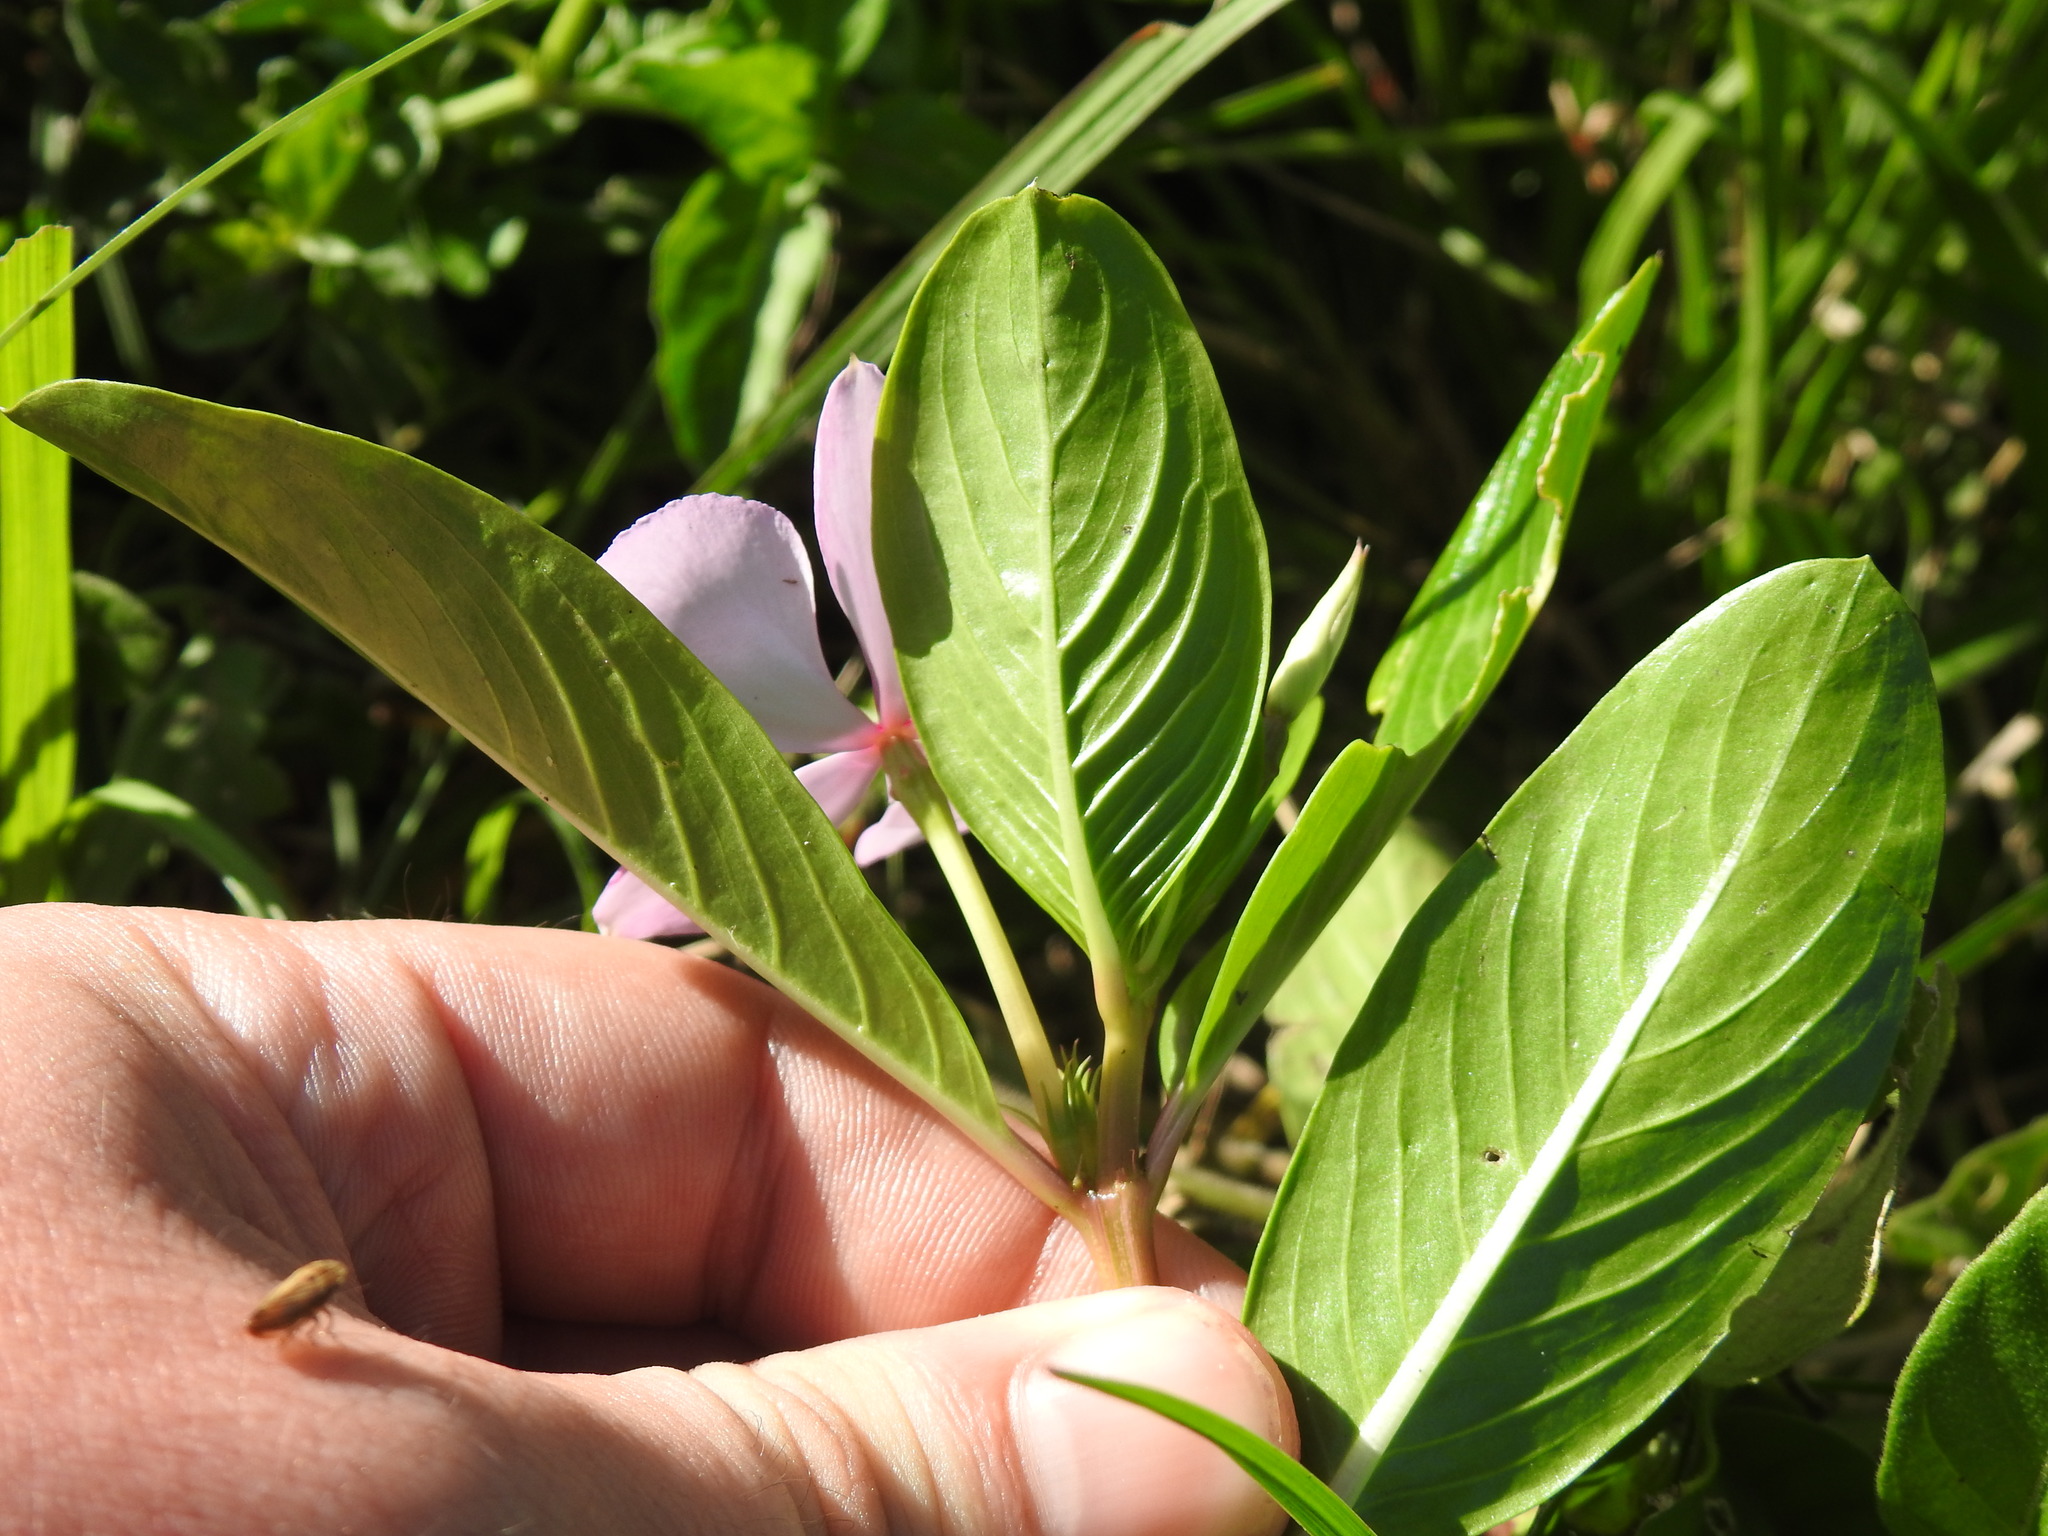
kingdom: Plantae
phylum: Tracheophyta
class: Magnoliopsida
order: Gentianales
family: Apocynaceae
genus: Catharanthus
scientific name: Catharanthus roseus
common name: Madagascar periwinkle
